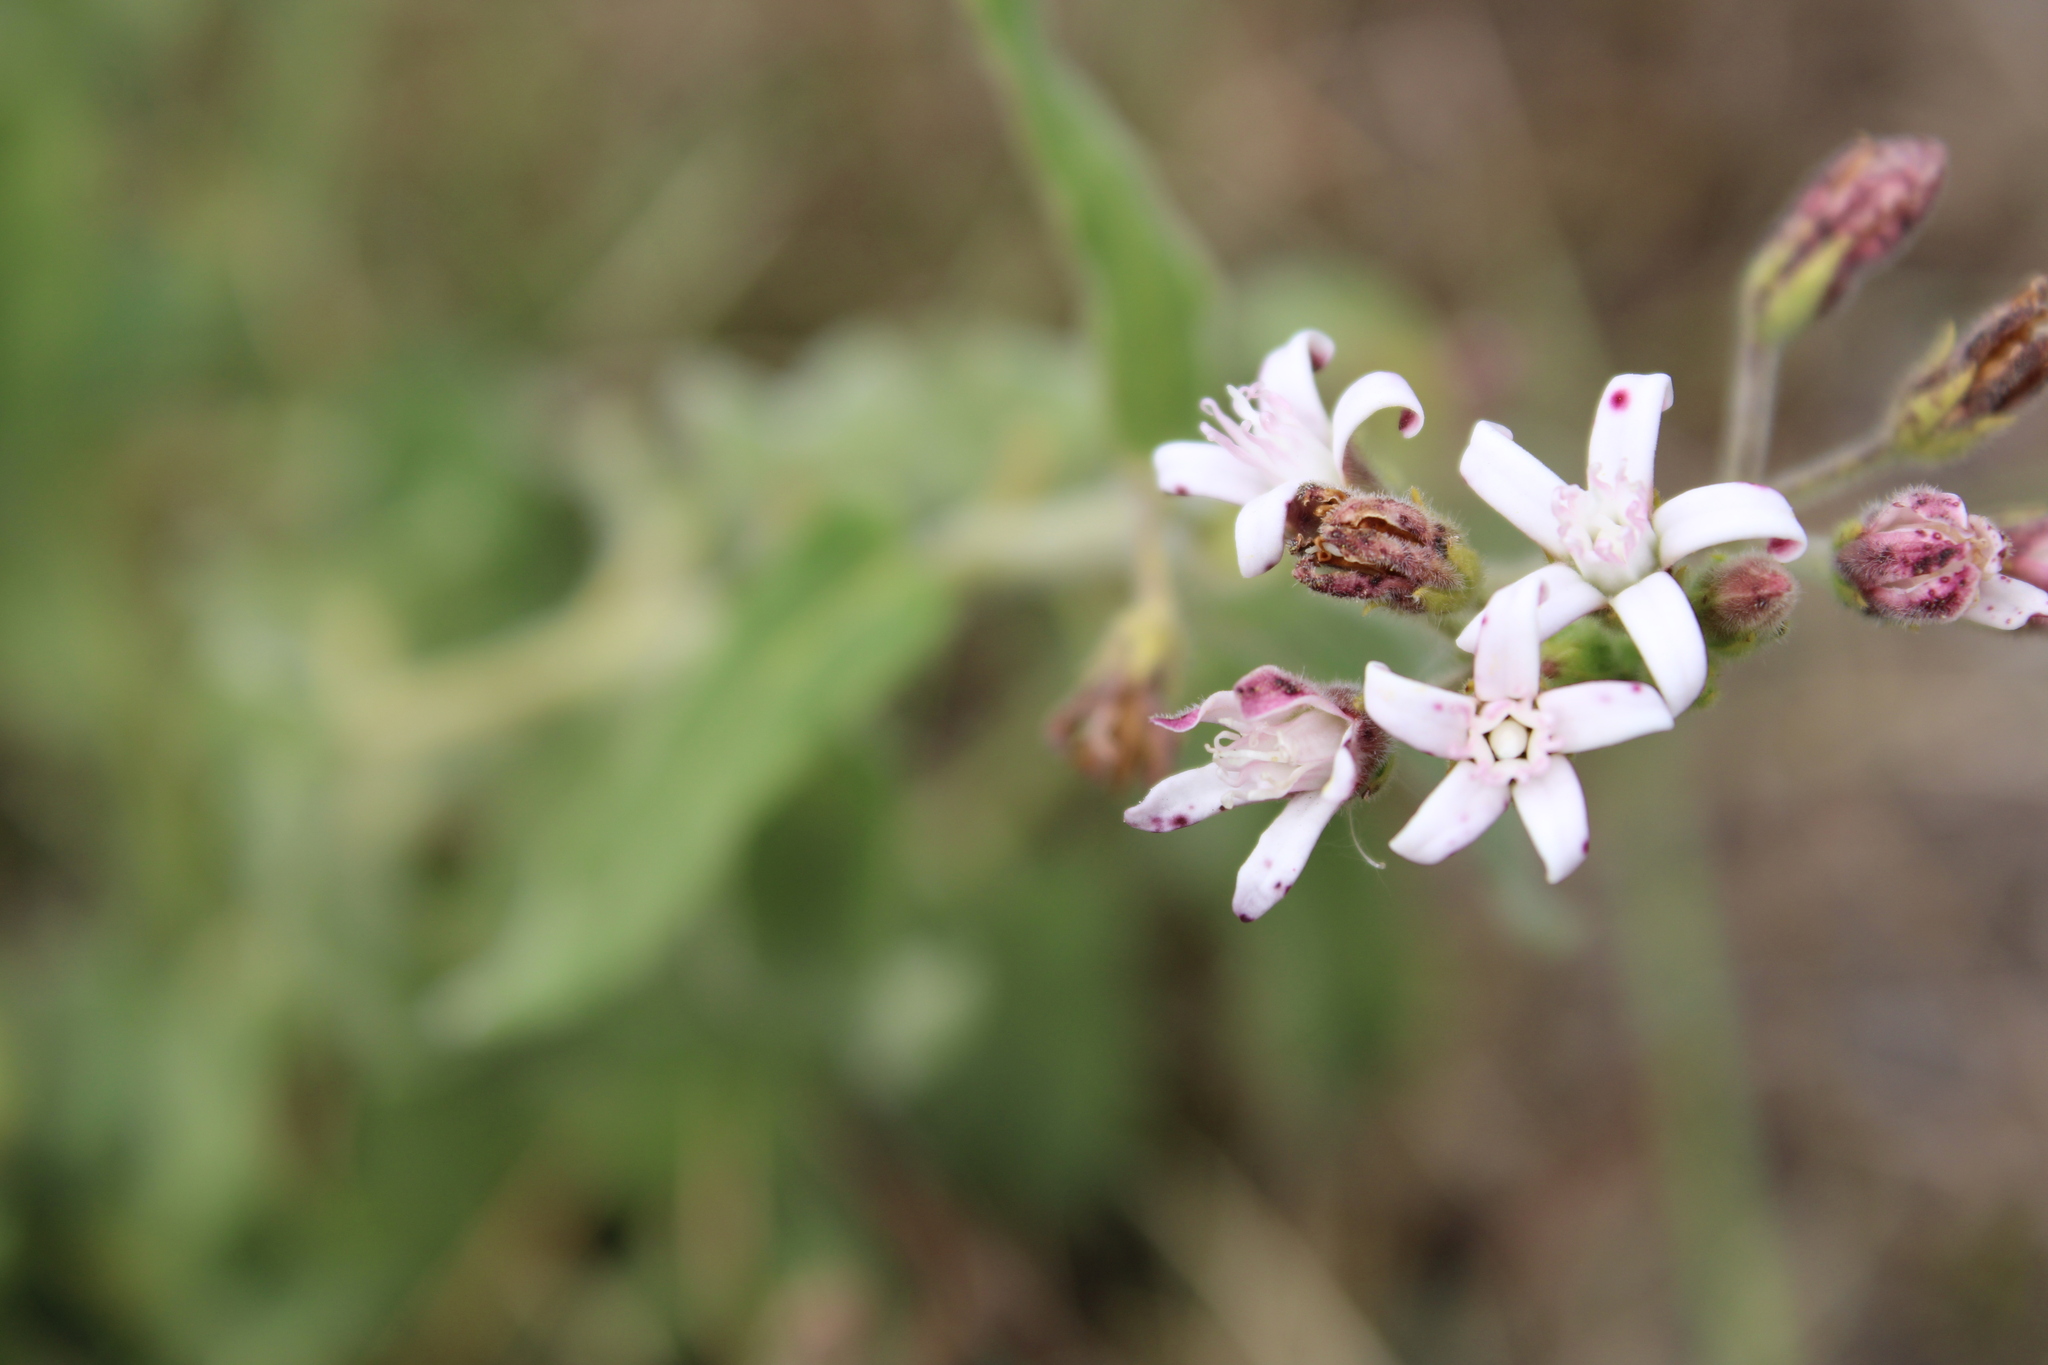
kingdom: Plantae
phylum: Tracheophyta
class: Magnoliopsida
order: Gentianales
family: Apocynaceae
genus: Oxypetalum
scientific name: Oxypetalum solanoides
